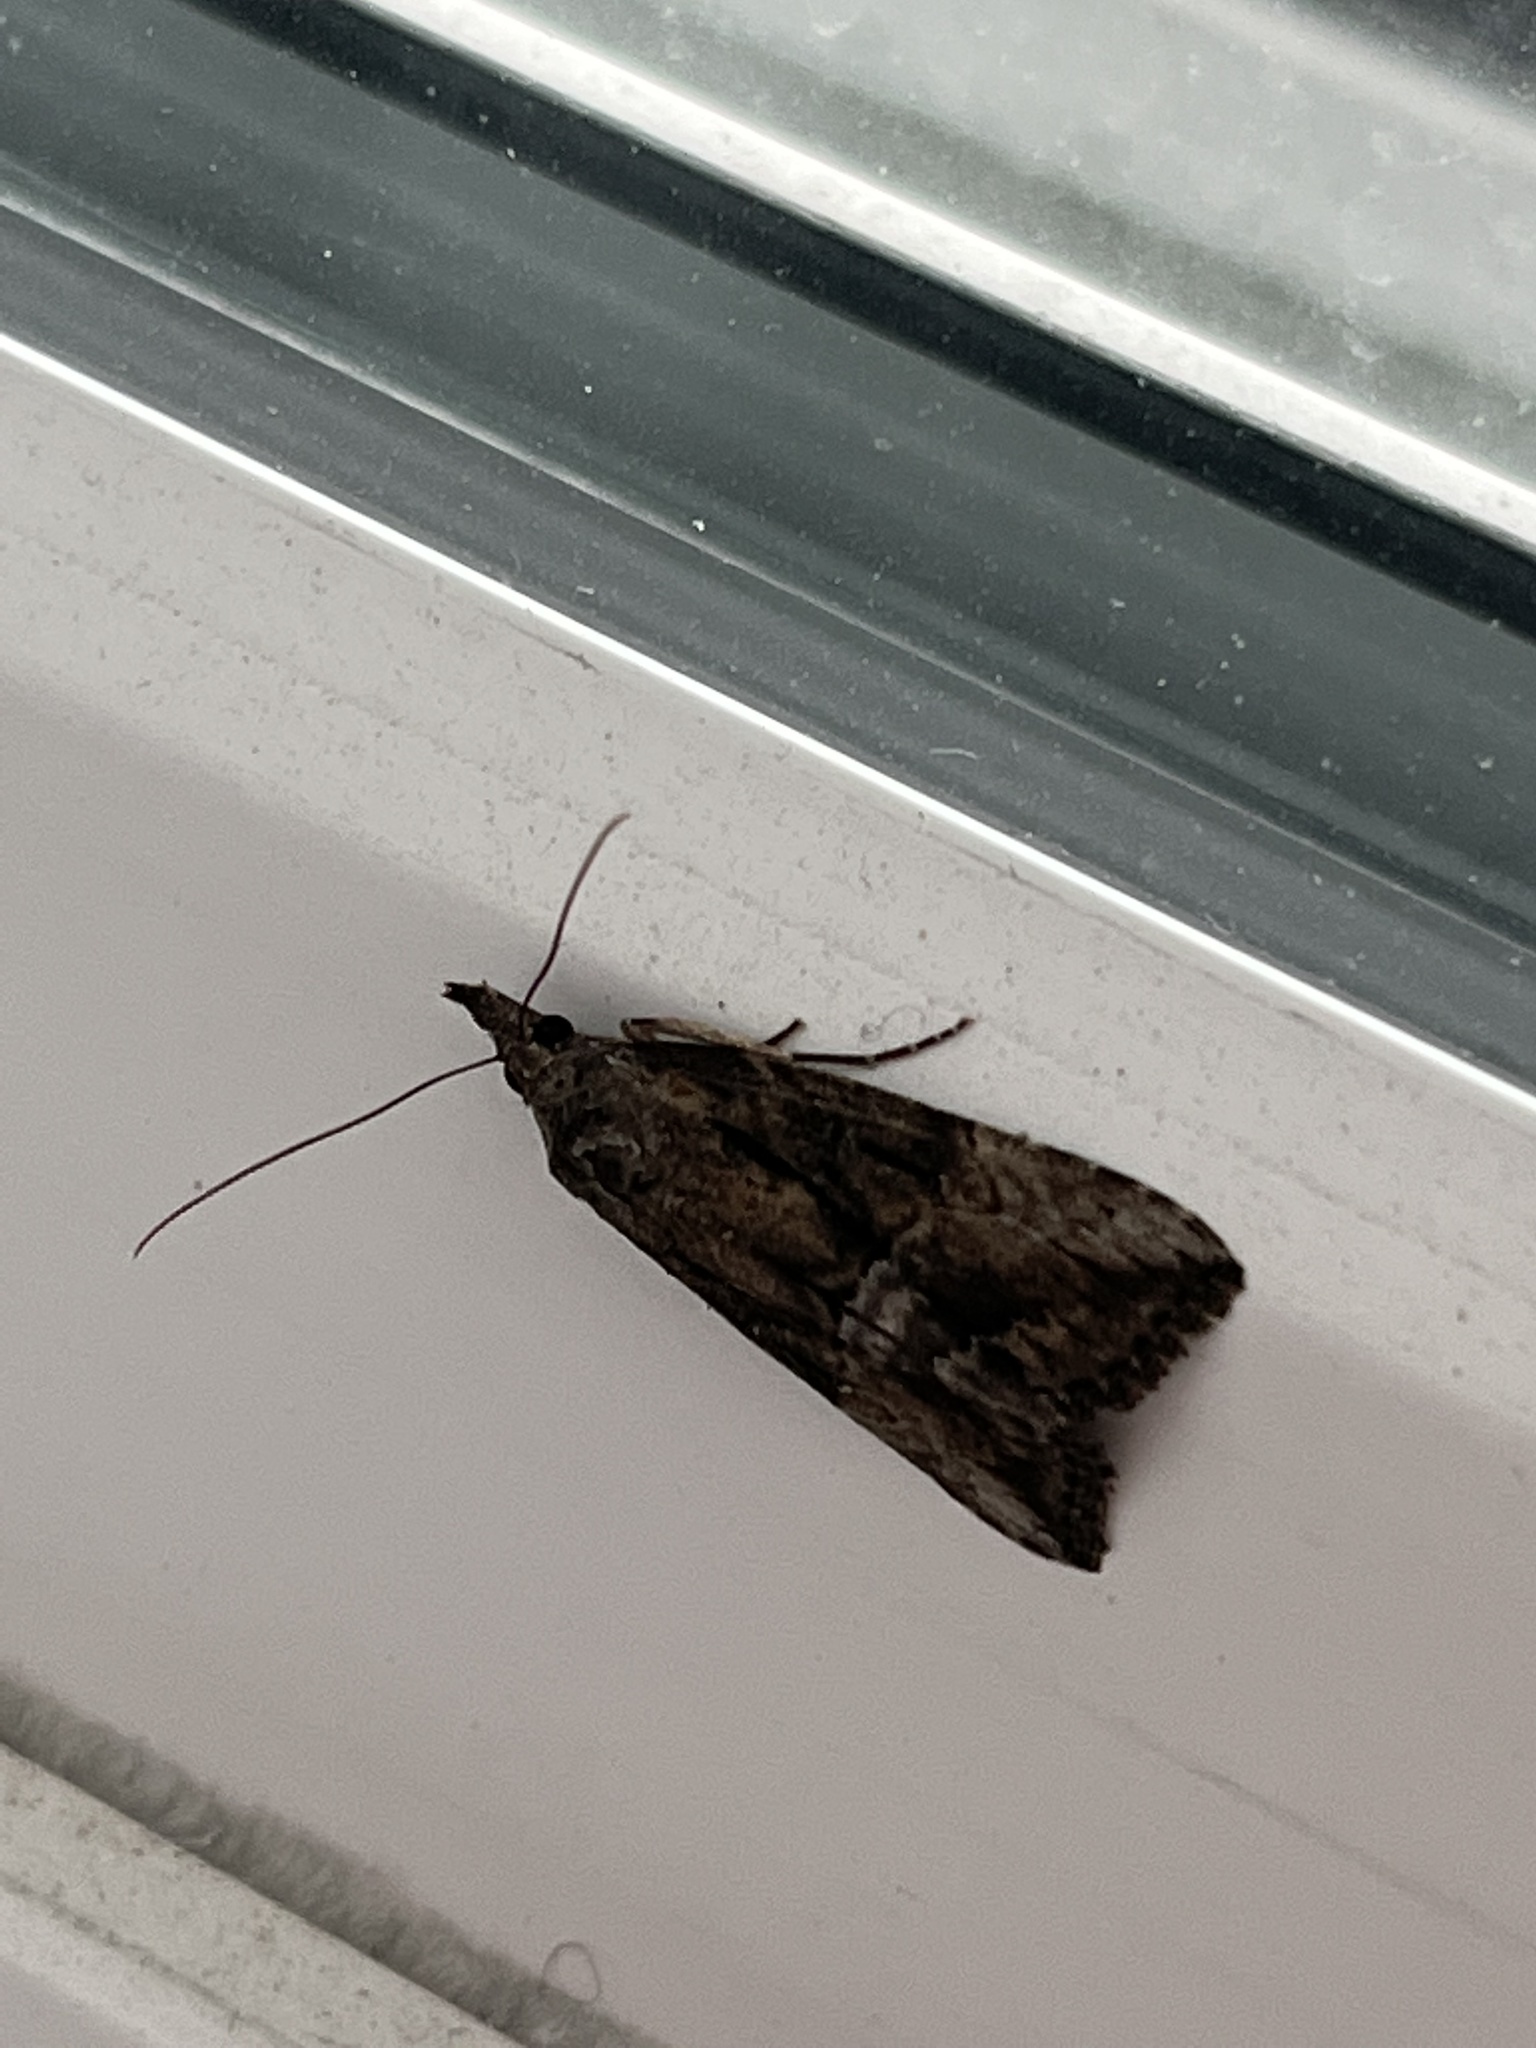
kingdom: Animalia
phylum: Arthropoda
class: Insecta
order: Lepidoptera
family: Erebidae
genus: Hypena
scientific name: Hypena scabra
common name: Green cloverworm
